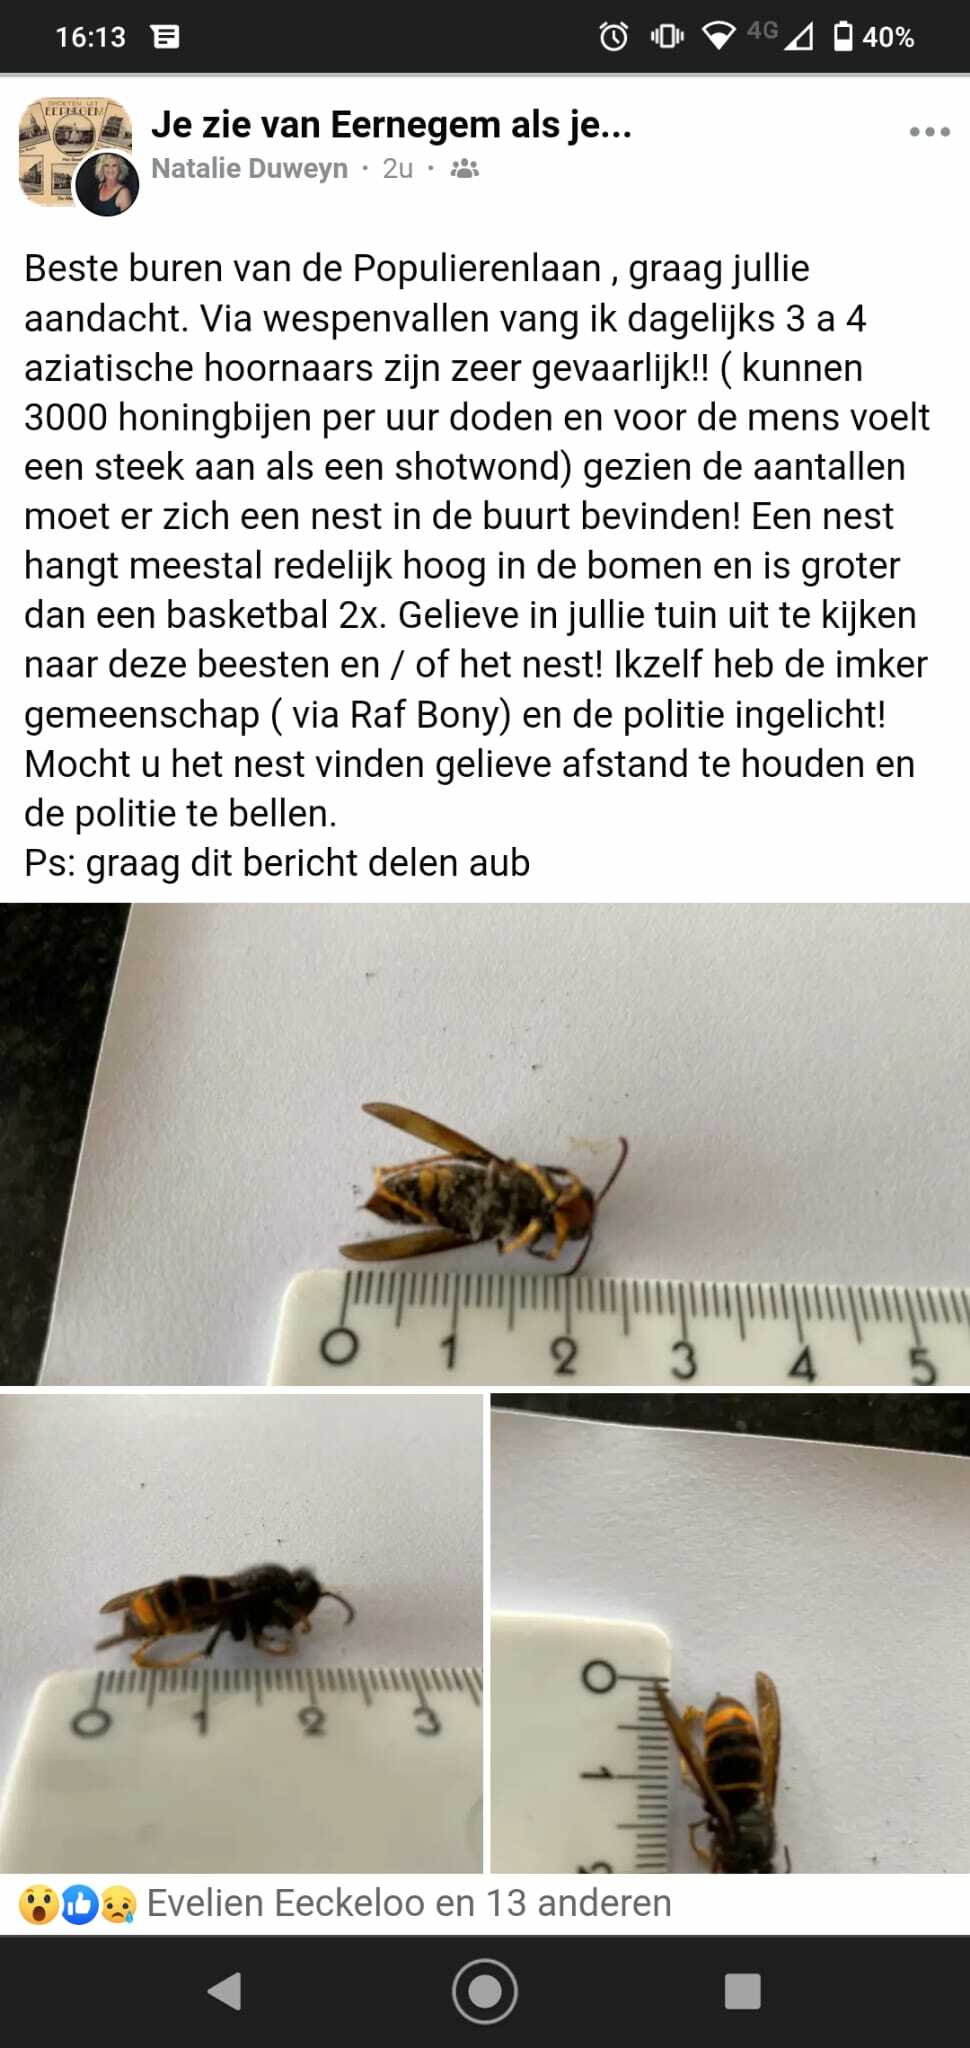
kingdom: Animalia
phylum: Arthropoda
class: Insecta
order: Hymenoptera
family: Vespidae
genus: Vespa
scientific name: Vespa velutina
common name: Asian hornet
